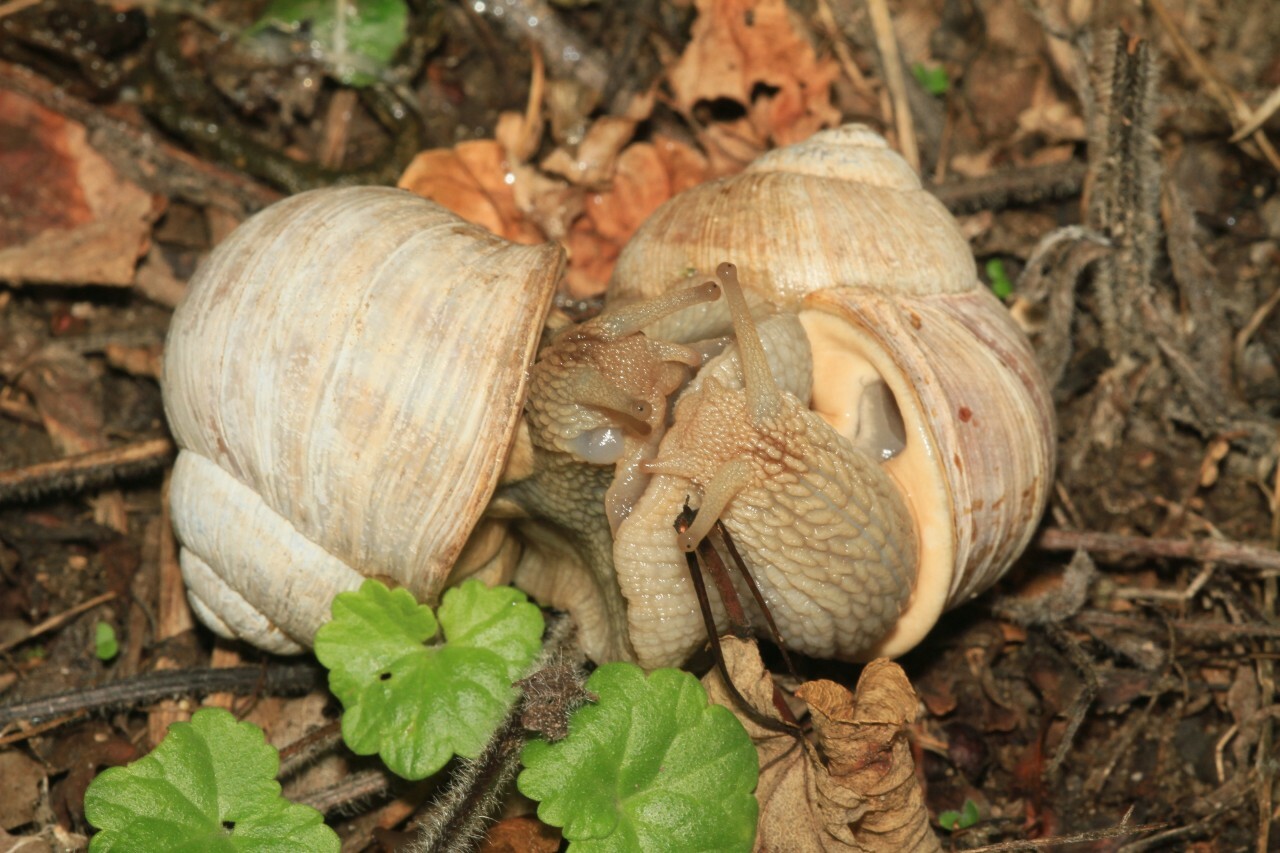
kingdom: Animalia
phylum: Mollusca
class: Gastropoda
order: Stylommatophora
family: Helicidae
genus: Helix
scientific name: Helix pomatia
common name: Roman snail
